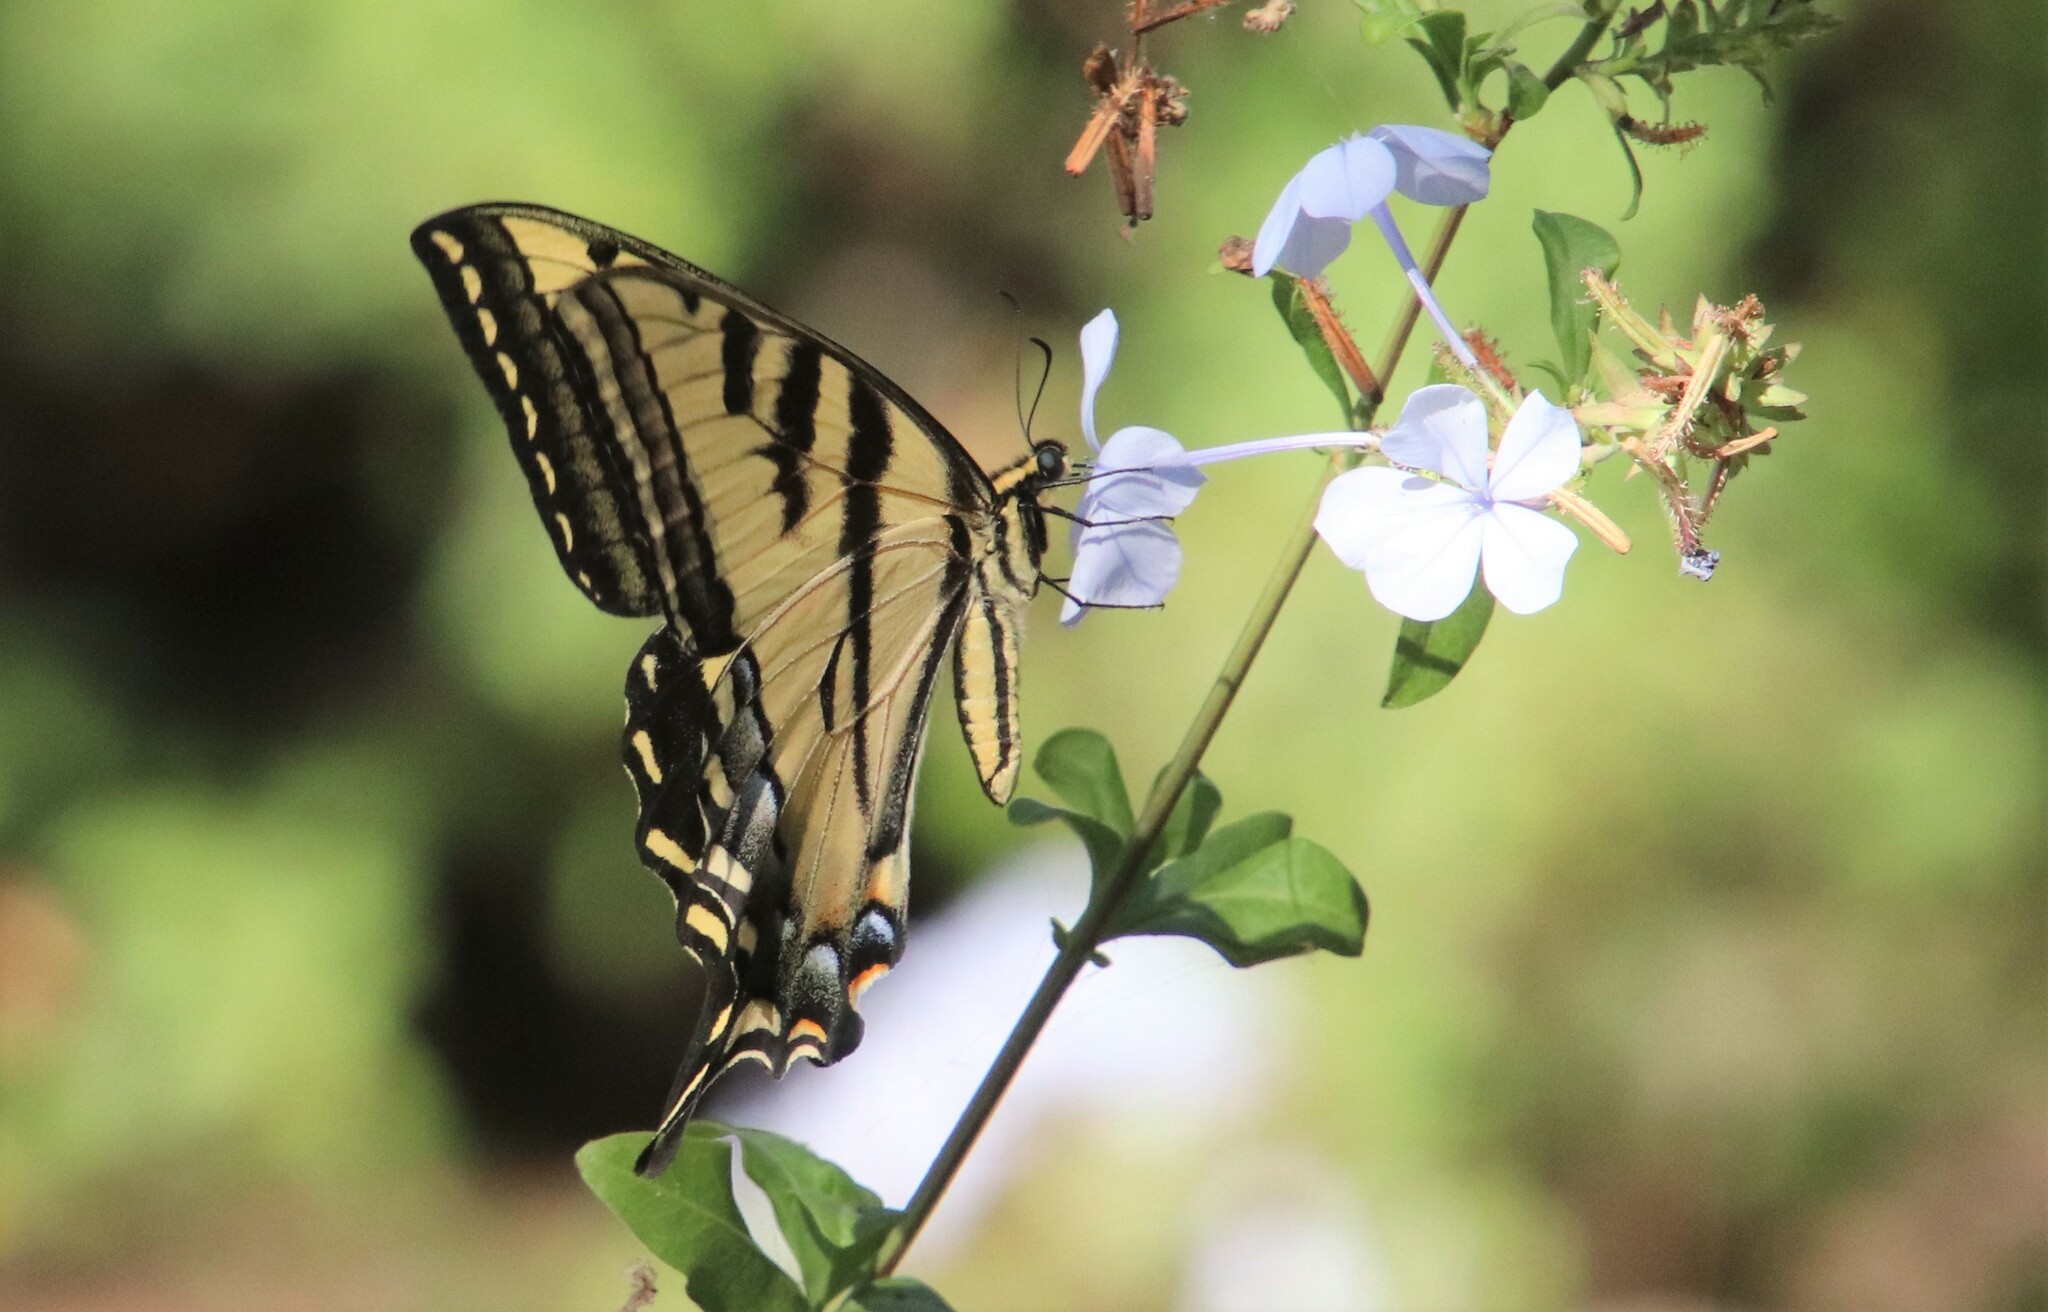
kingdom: Animalia
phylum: Arthropoda
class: Insecta
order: Lepidoptera
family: Papilionidae
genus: Papilio
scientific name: Papilio rutulus
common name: Western tiger swallowtail
